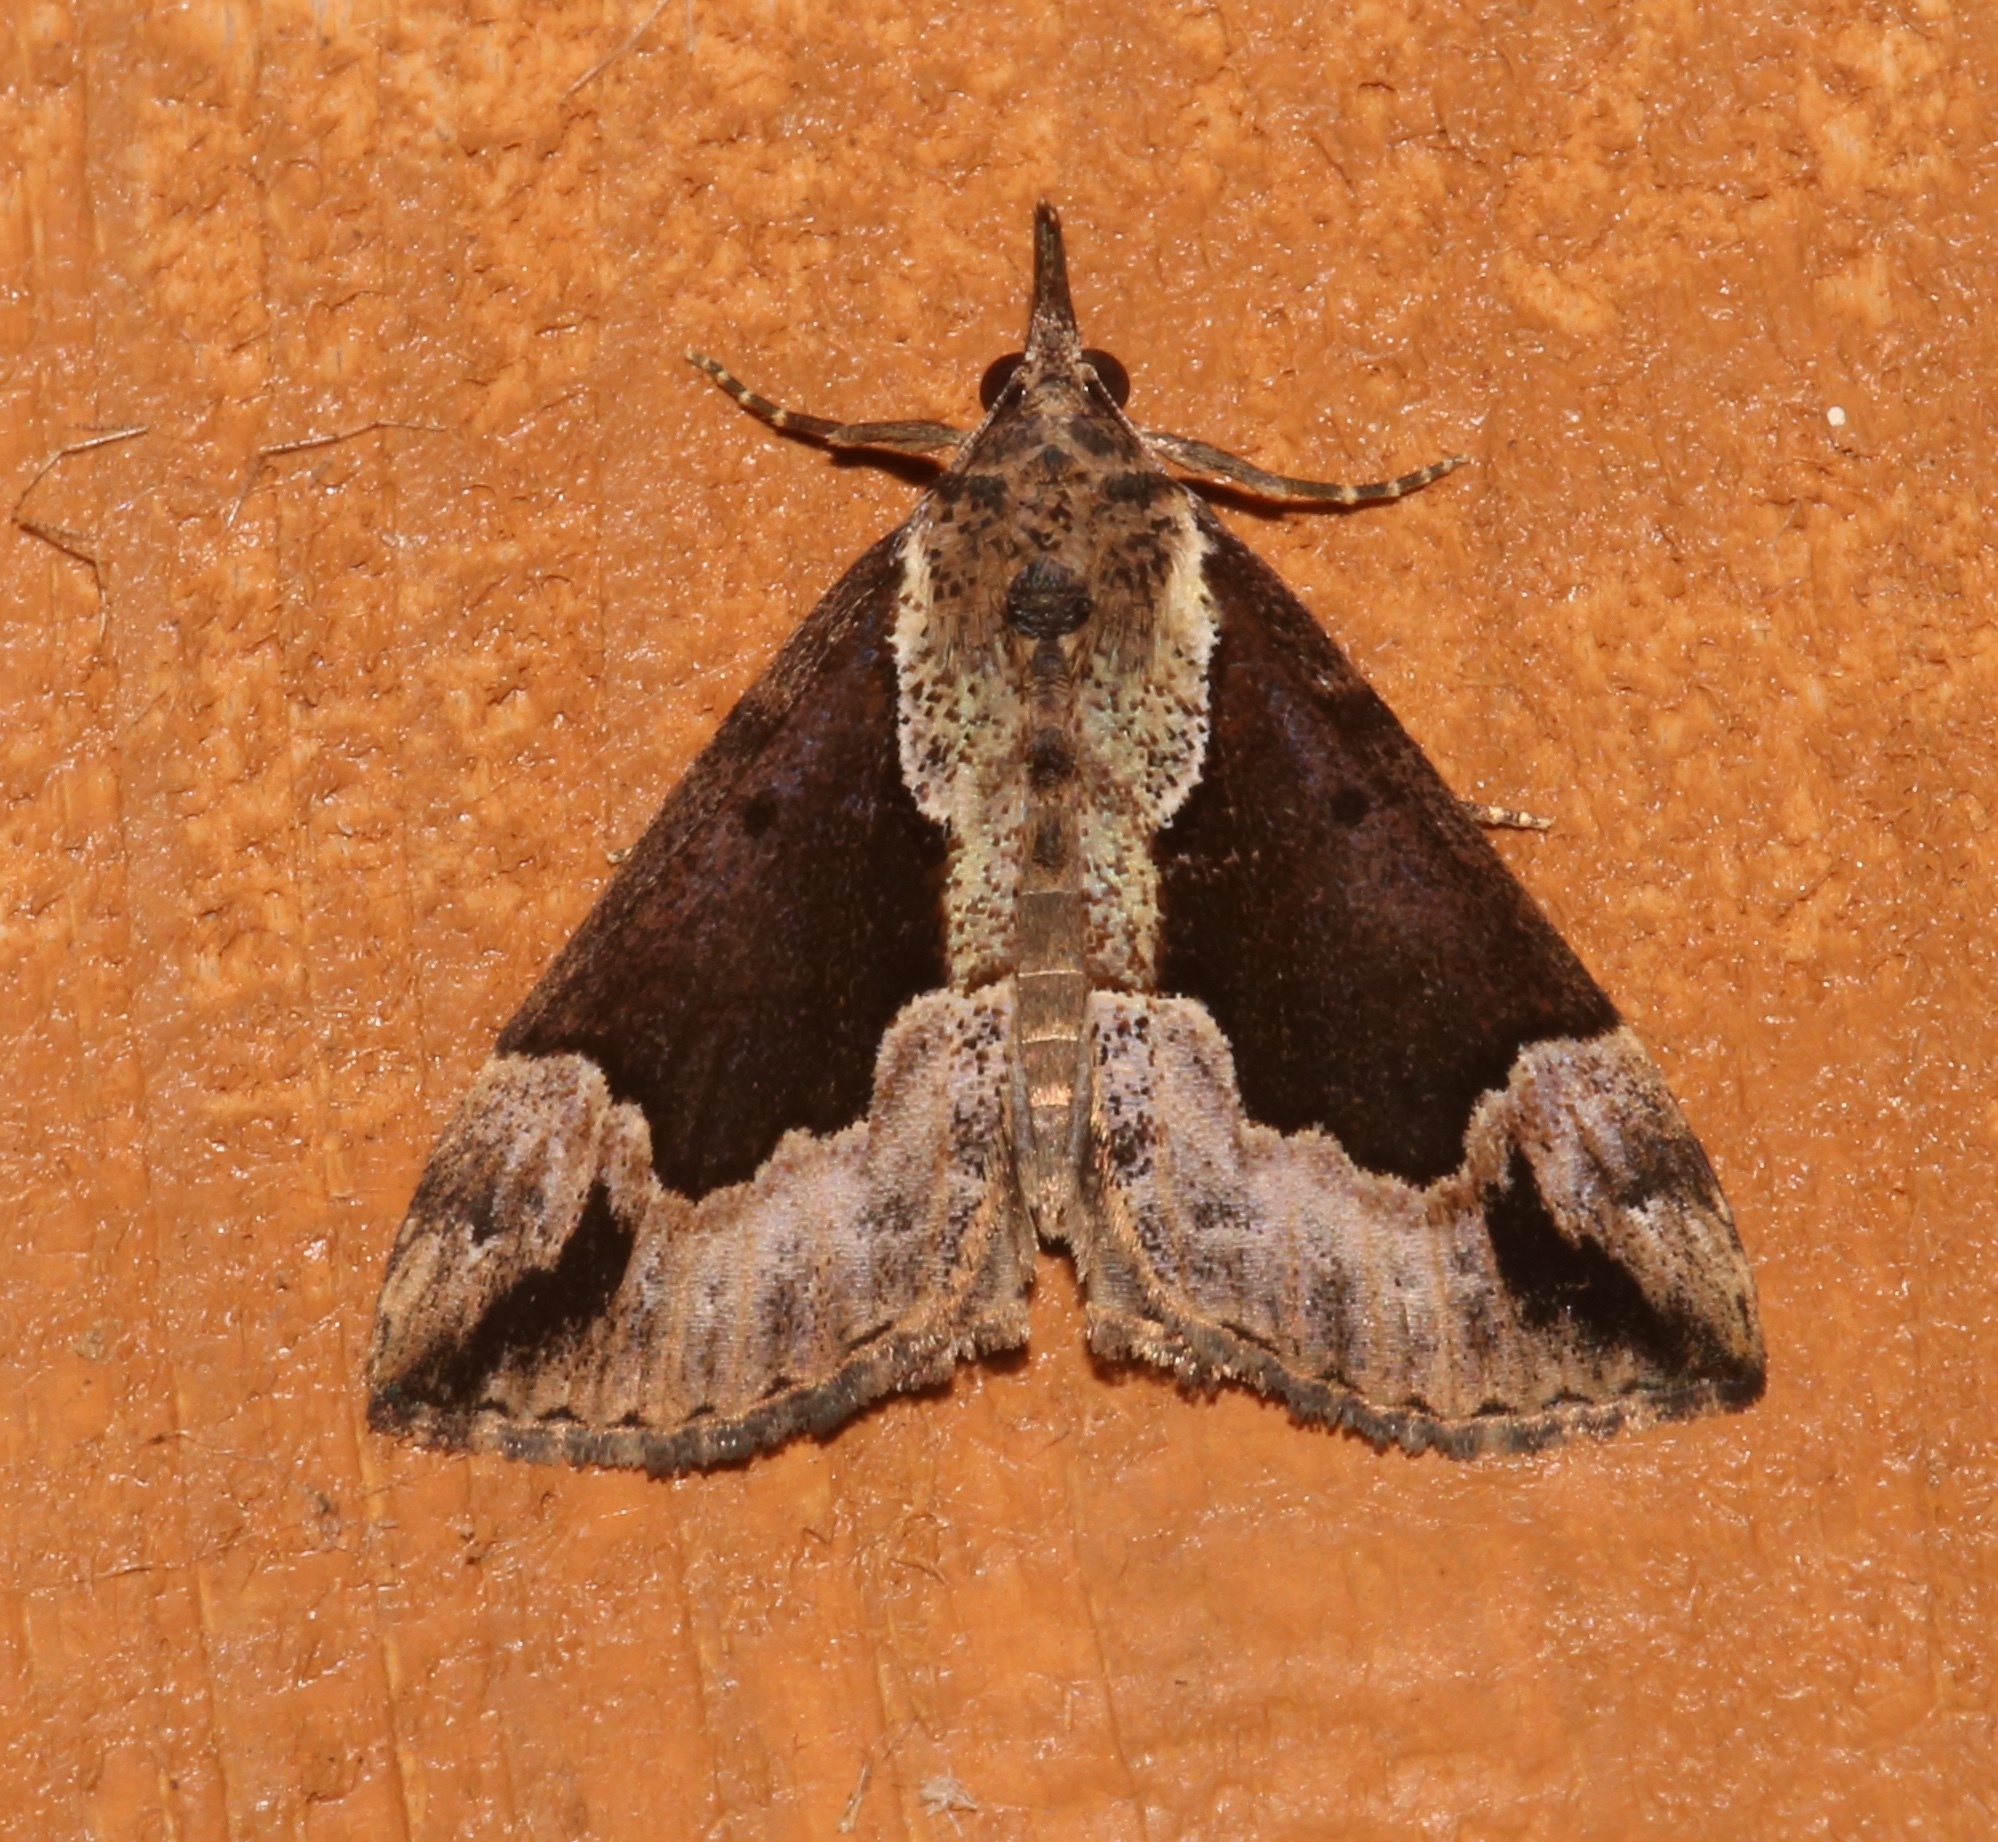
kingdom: Animalia
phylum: Arthropoda
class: Insecta
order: Lepidoptera
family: Erebidae
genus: Hypena
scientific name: Hypena baltimoralis
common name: Baltimore snout
